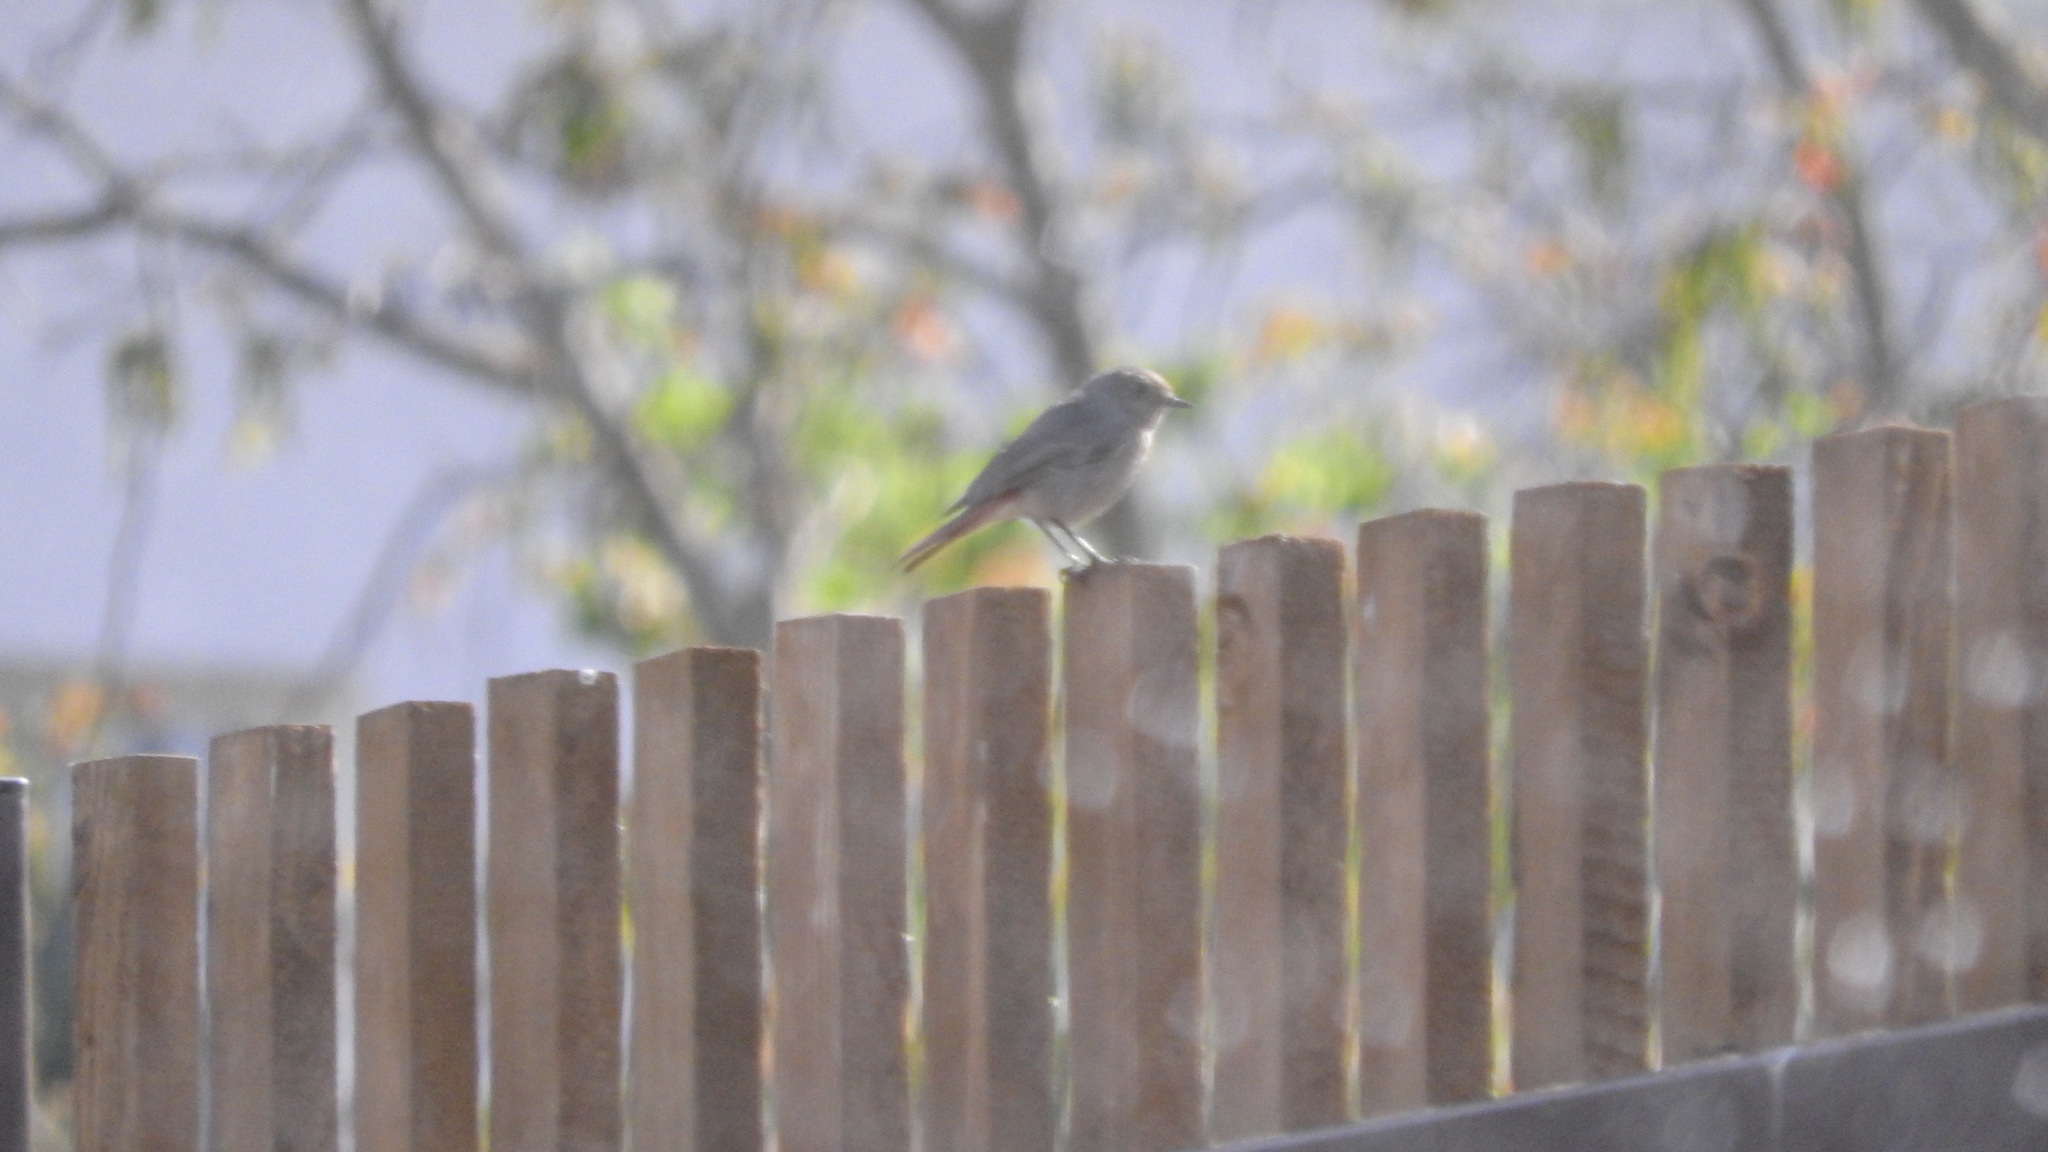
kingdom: Animalia
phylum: Chordata
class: Aves
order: Passeriformes
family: Muscicapidae
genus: Phoenicurus
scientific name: Phoenicurus ochruros
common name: Black redstart
